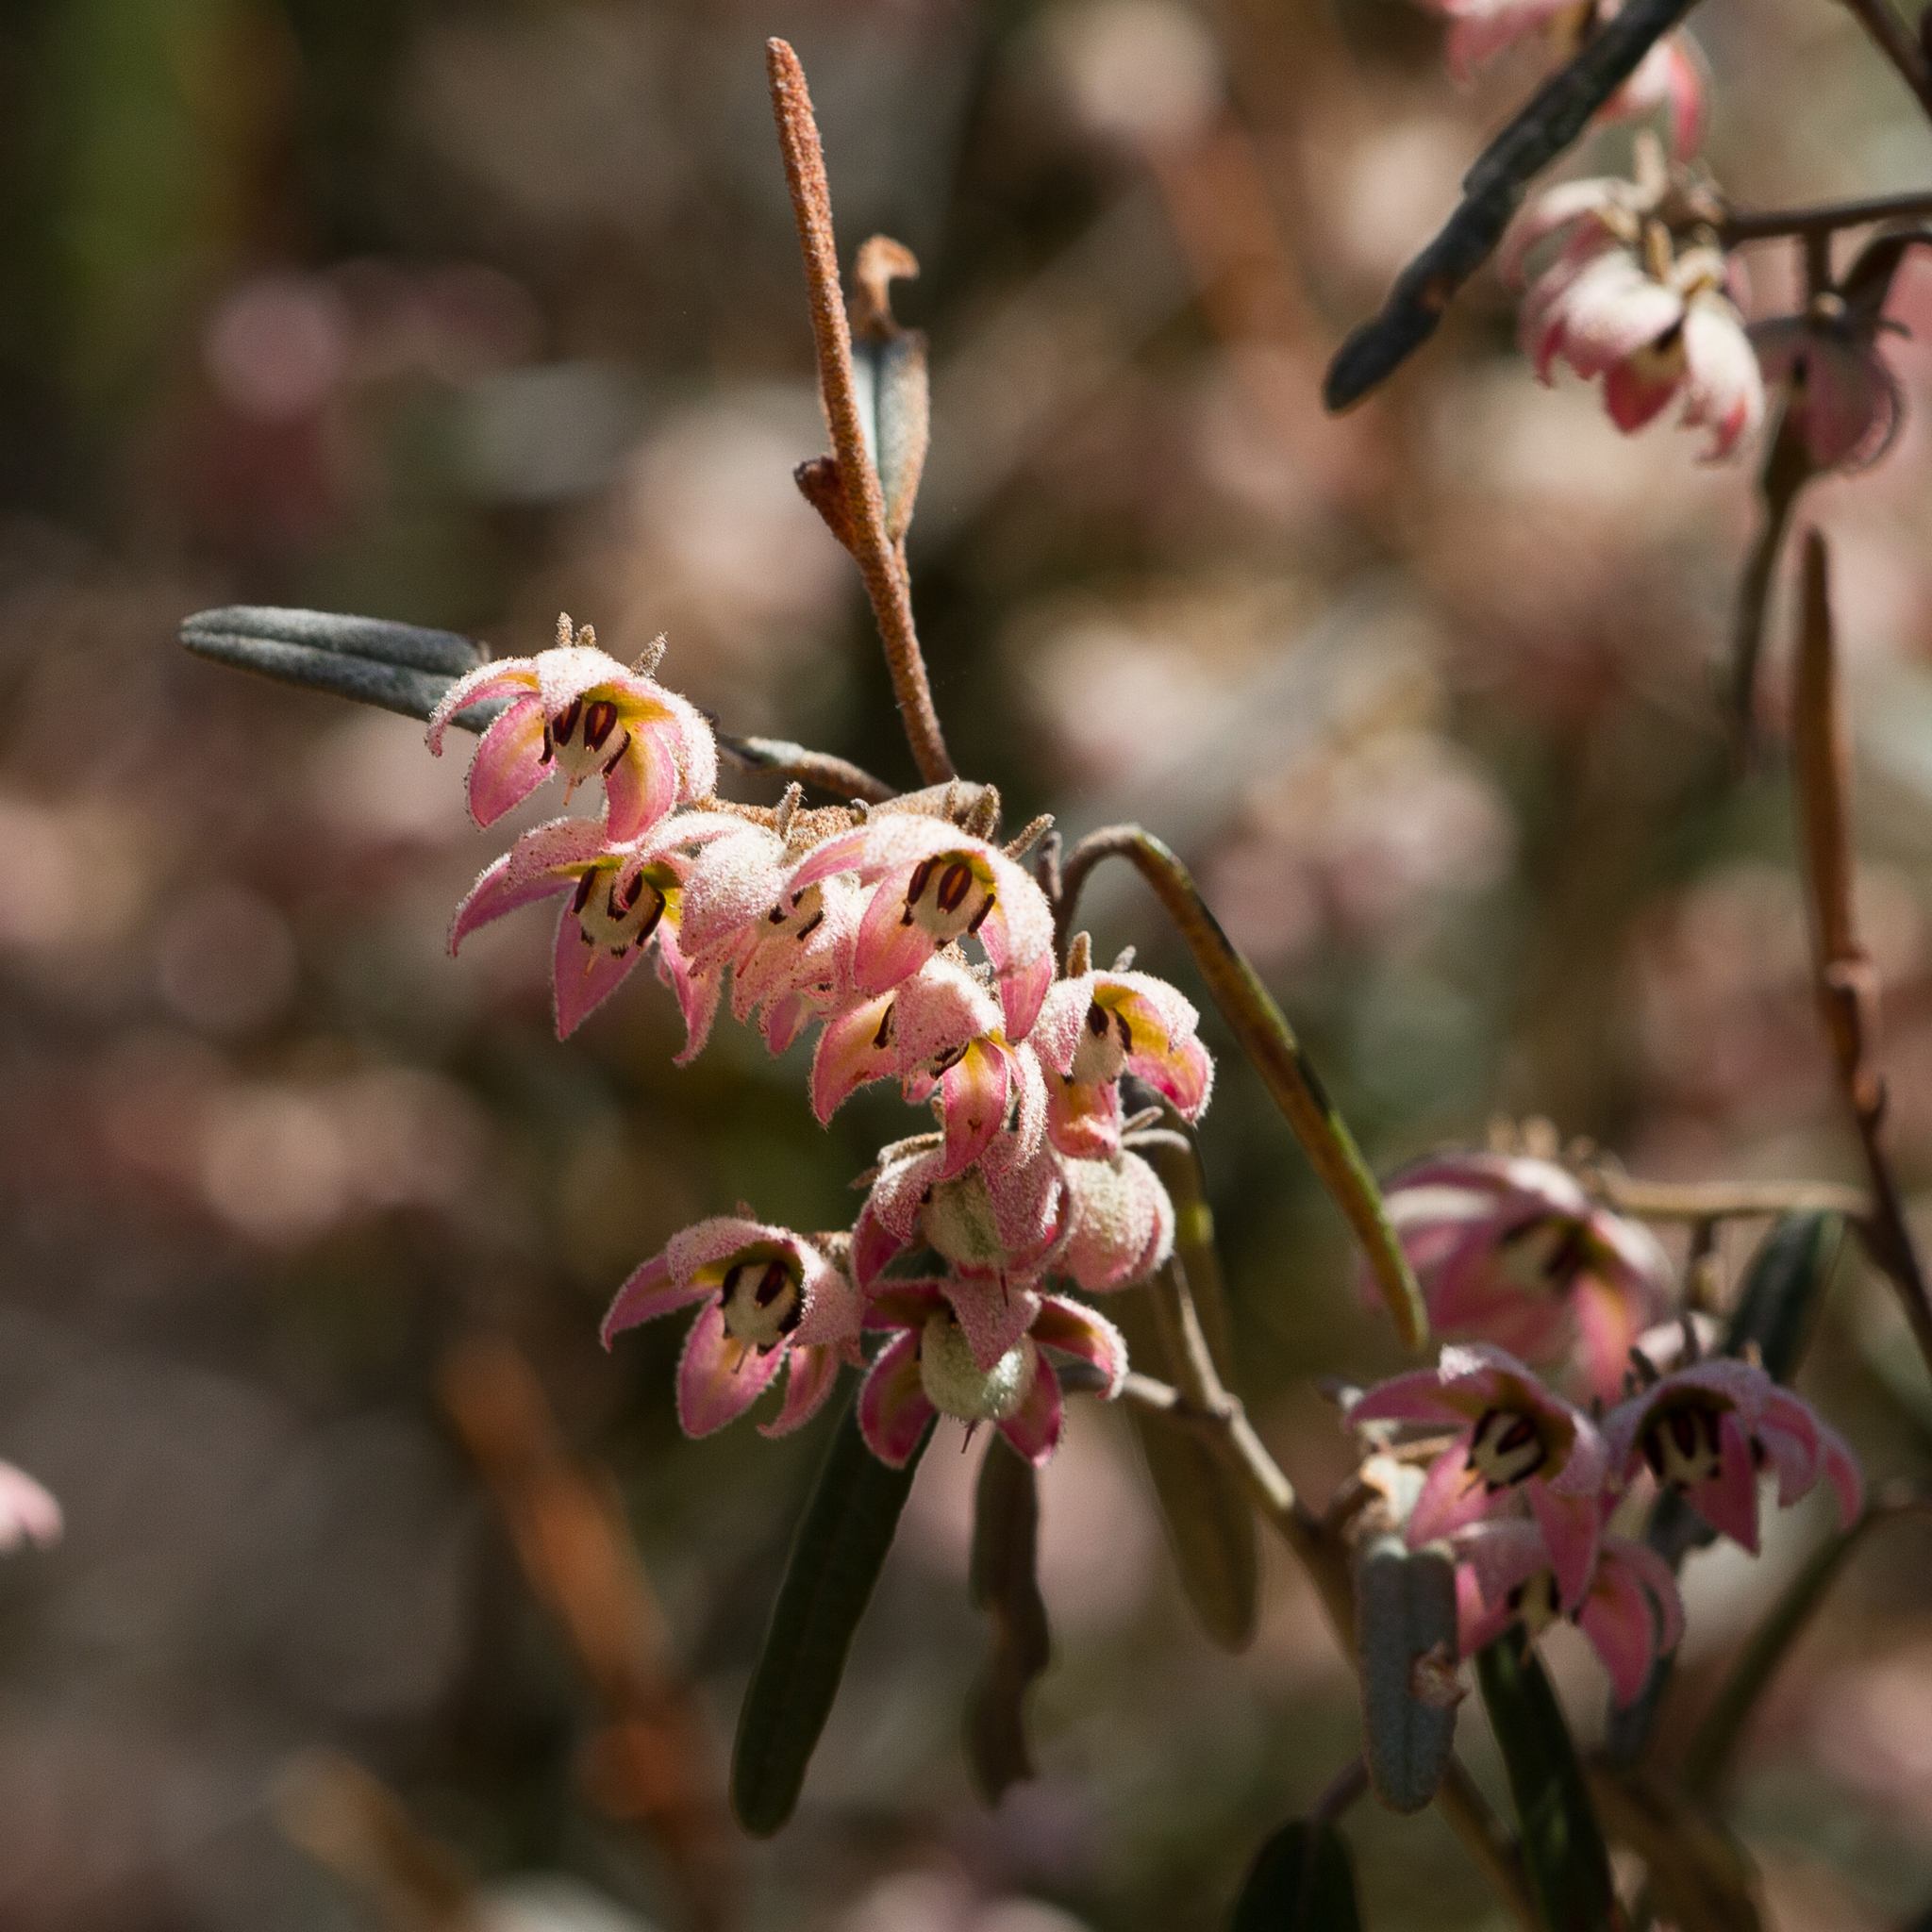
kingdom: Plantae
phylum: Tracheophyta
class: Magnoliopsida
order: Malvales
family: Malvaceae
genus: Lasiopetalum
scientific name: Lasiopetalum behrii
